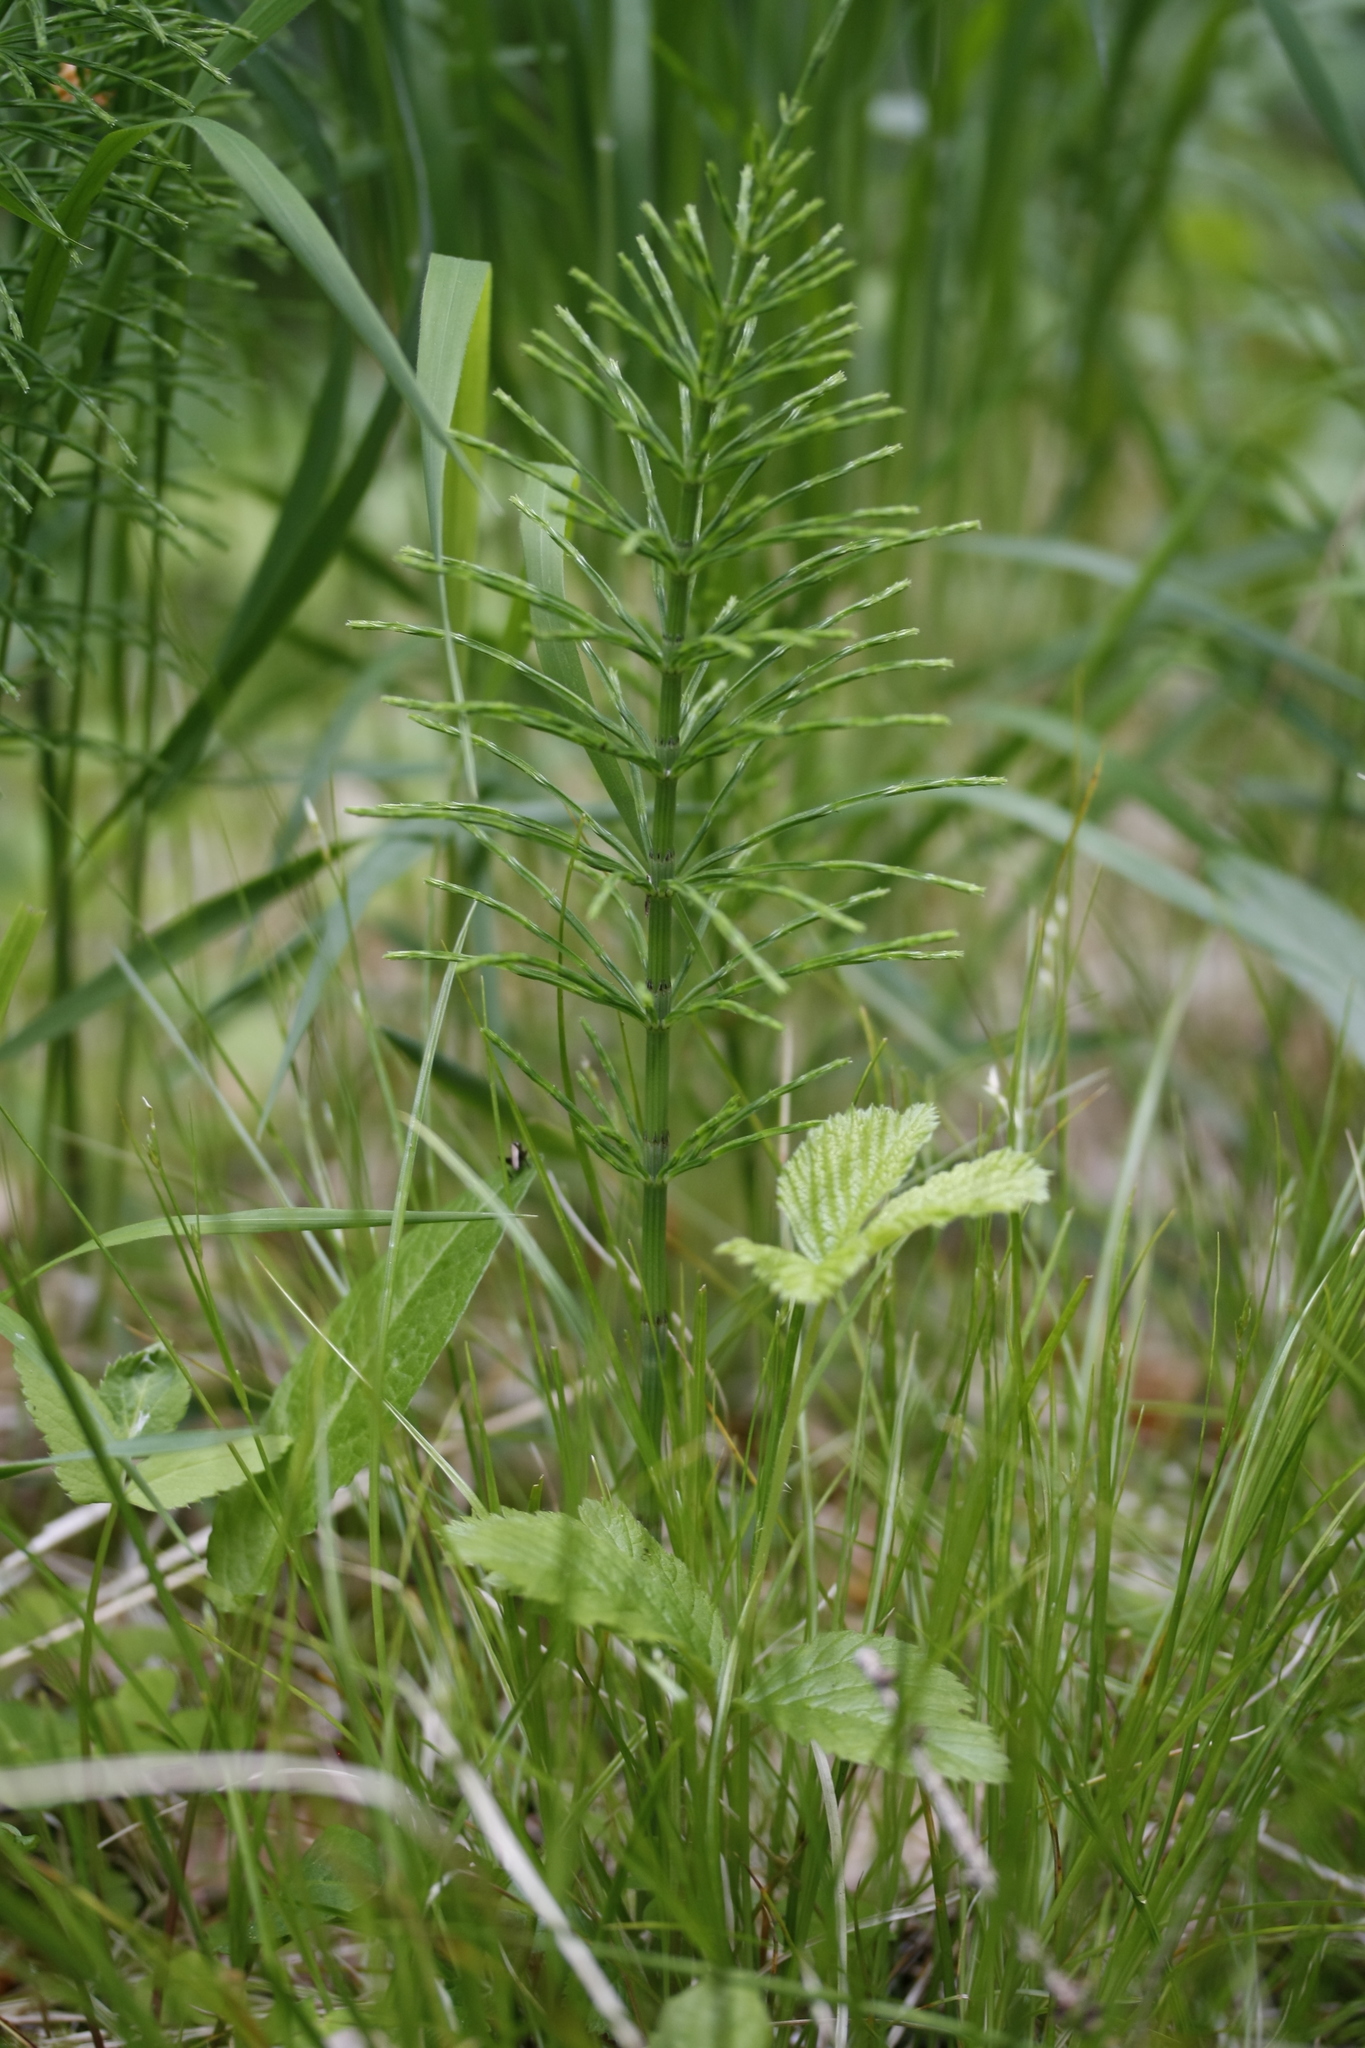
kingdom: Plantae
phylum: Tracheophyta
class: Polypodiopsida
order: Equisetales
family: Equisetaceae
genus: Equisetum
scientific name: Equisetum arvense
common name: Field horsetail
